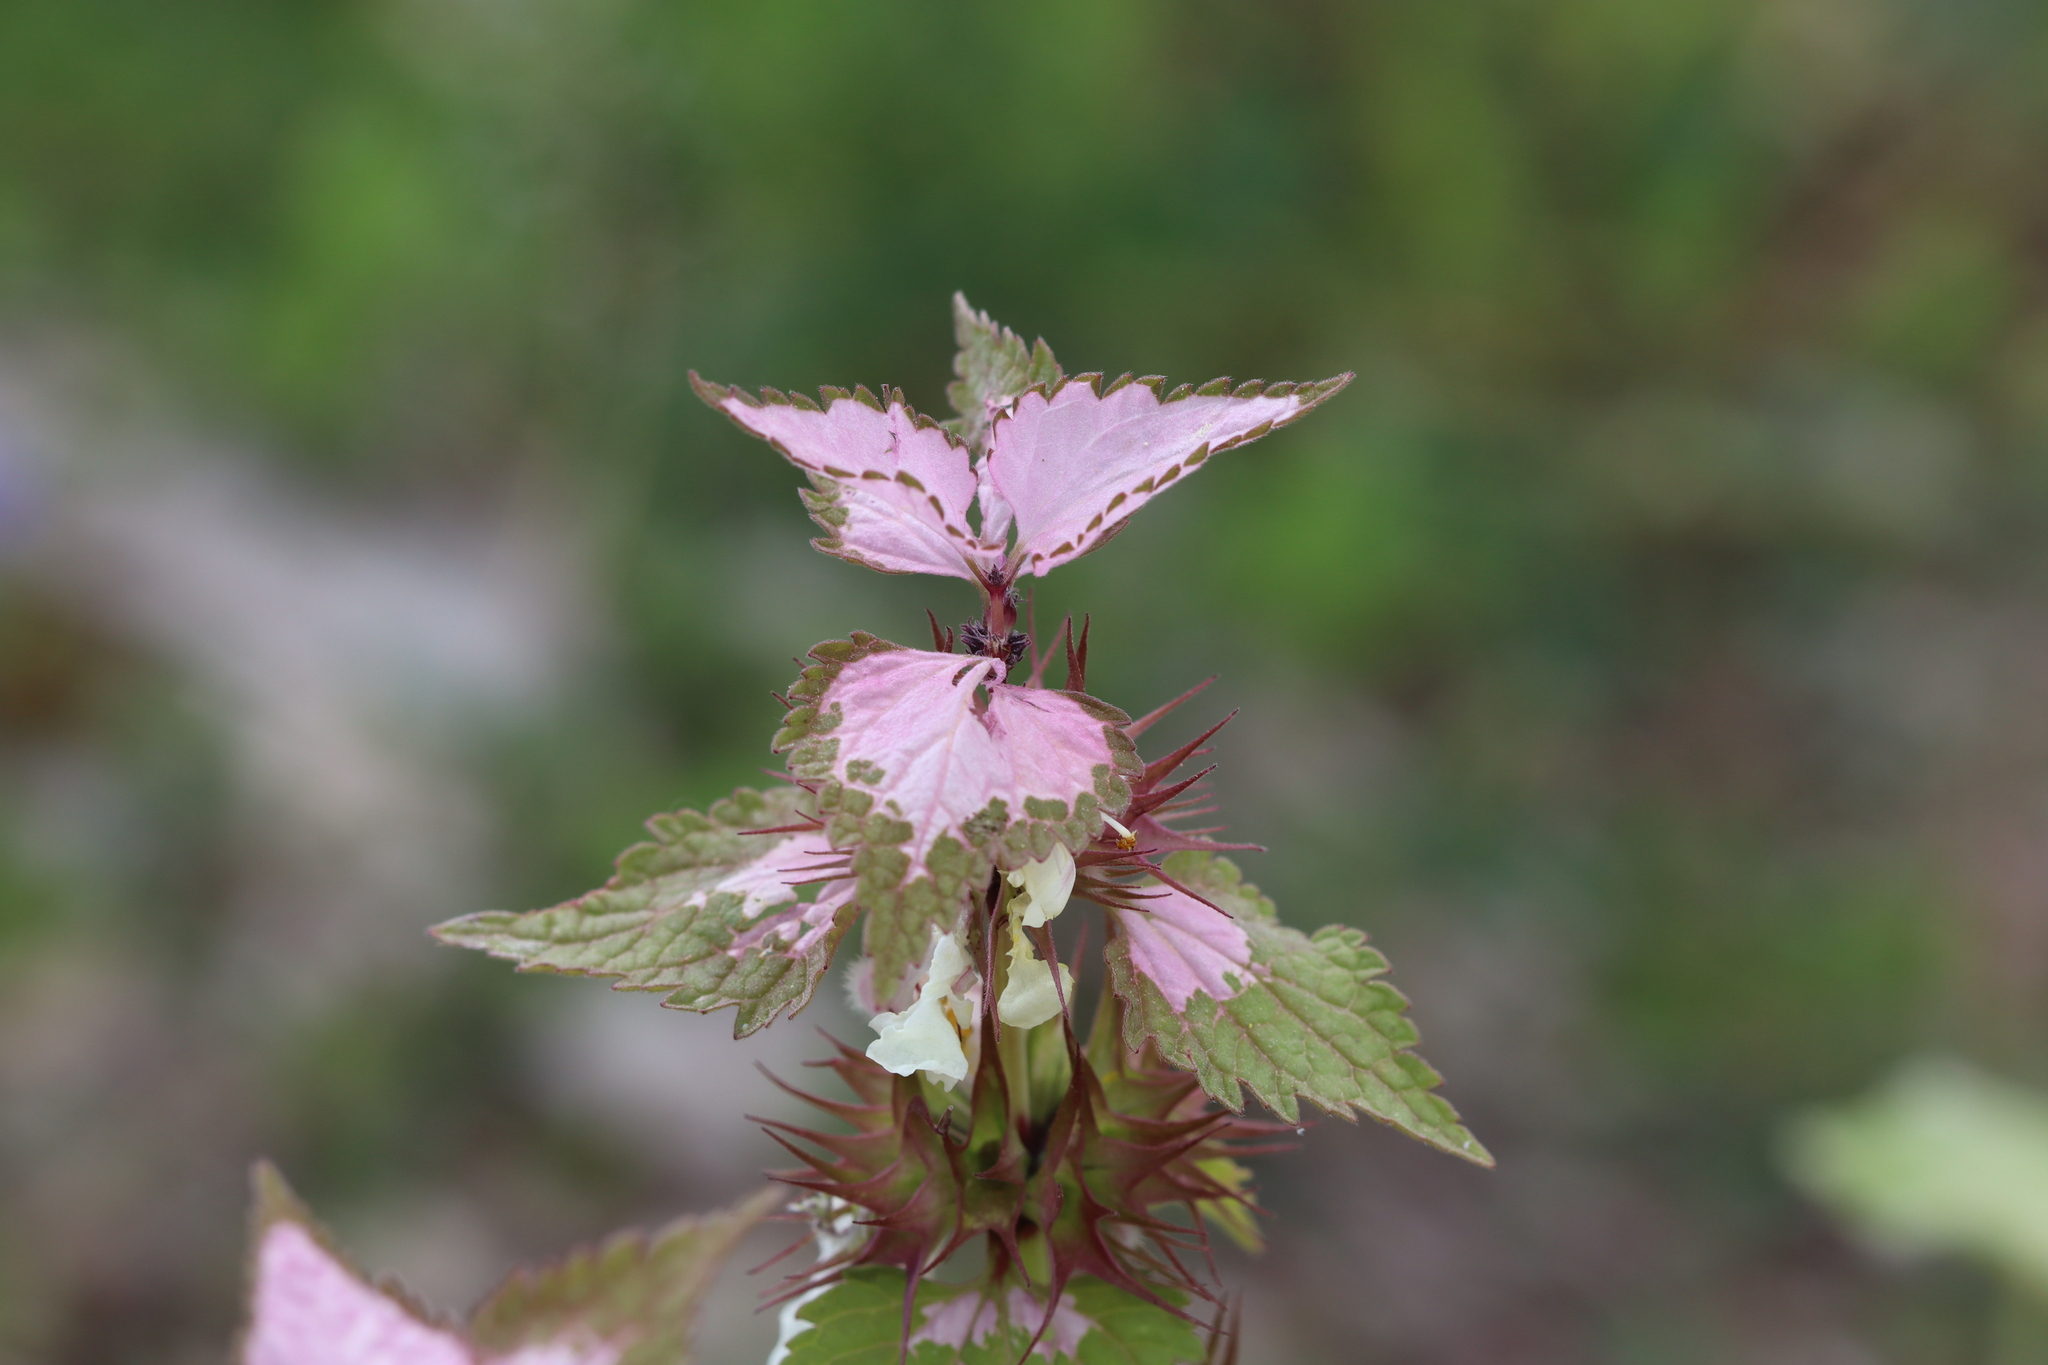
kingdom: Plantae
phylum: Tracheophyta
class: Magnoliopsida
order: Lamiales
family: Lamiaceae
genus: Lamium
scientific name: Lamium moschatum
